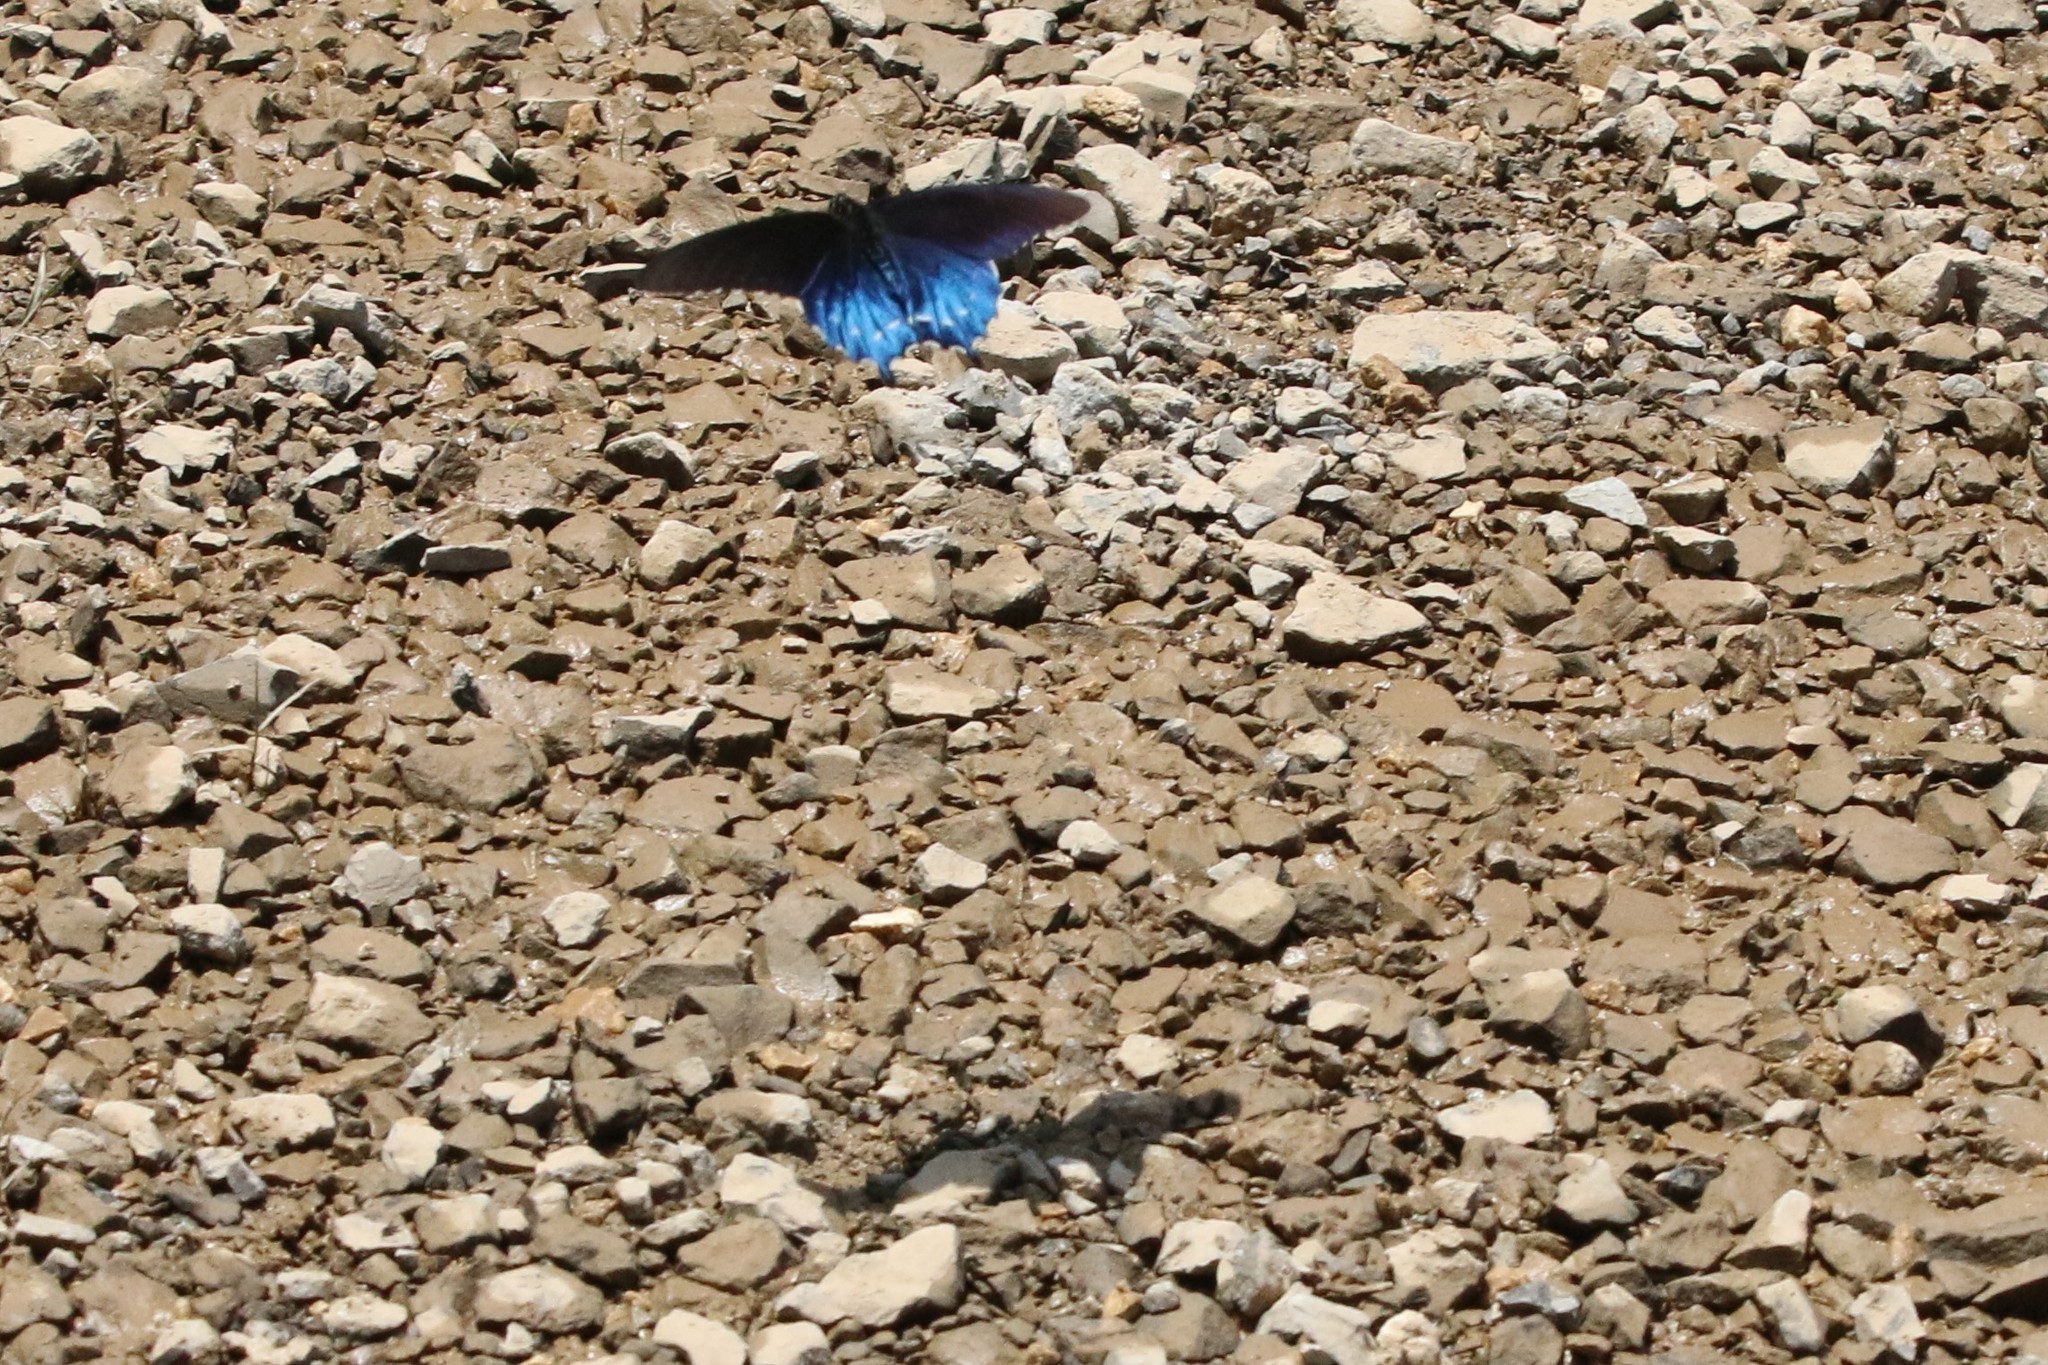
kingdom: Animalia
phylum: Arthropoda
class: Insecta
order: Lepidoptera
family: Papilionidae
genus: Battus
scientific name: Battus philenor
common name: Pipevine swallowtail
